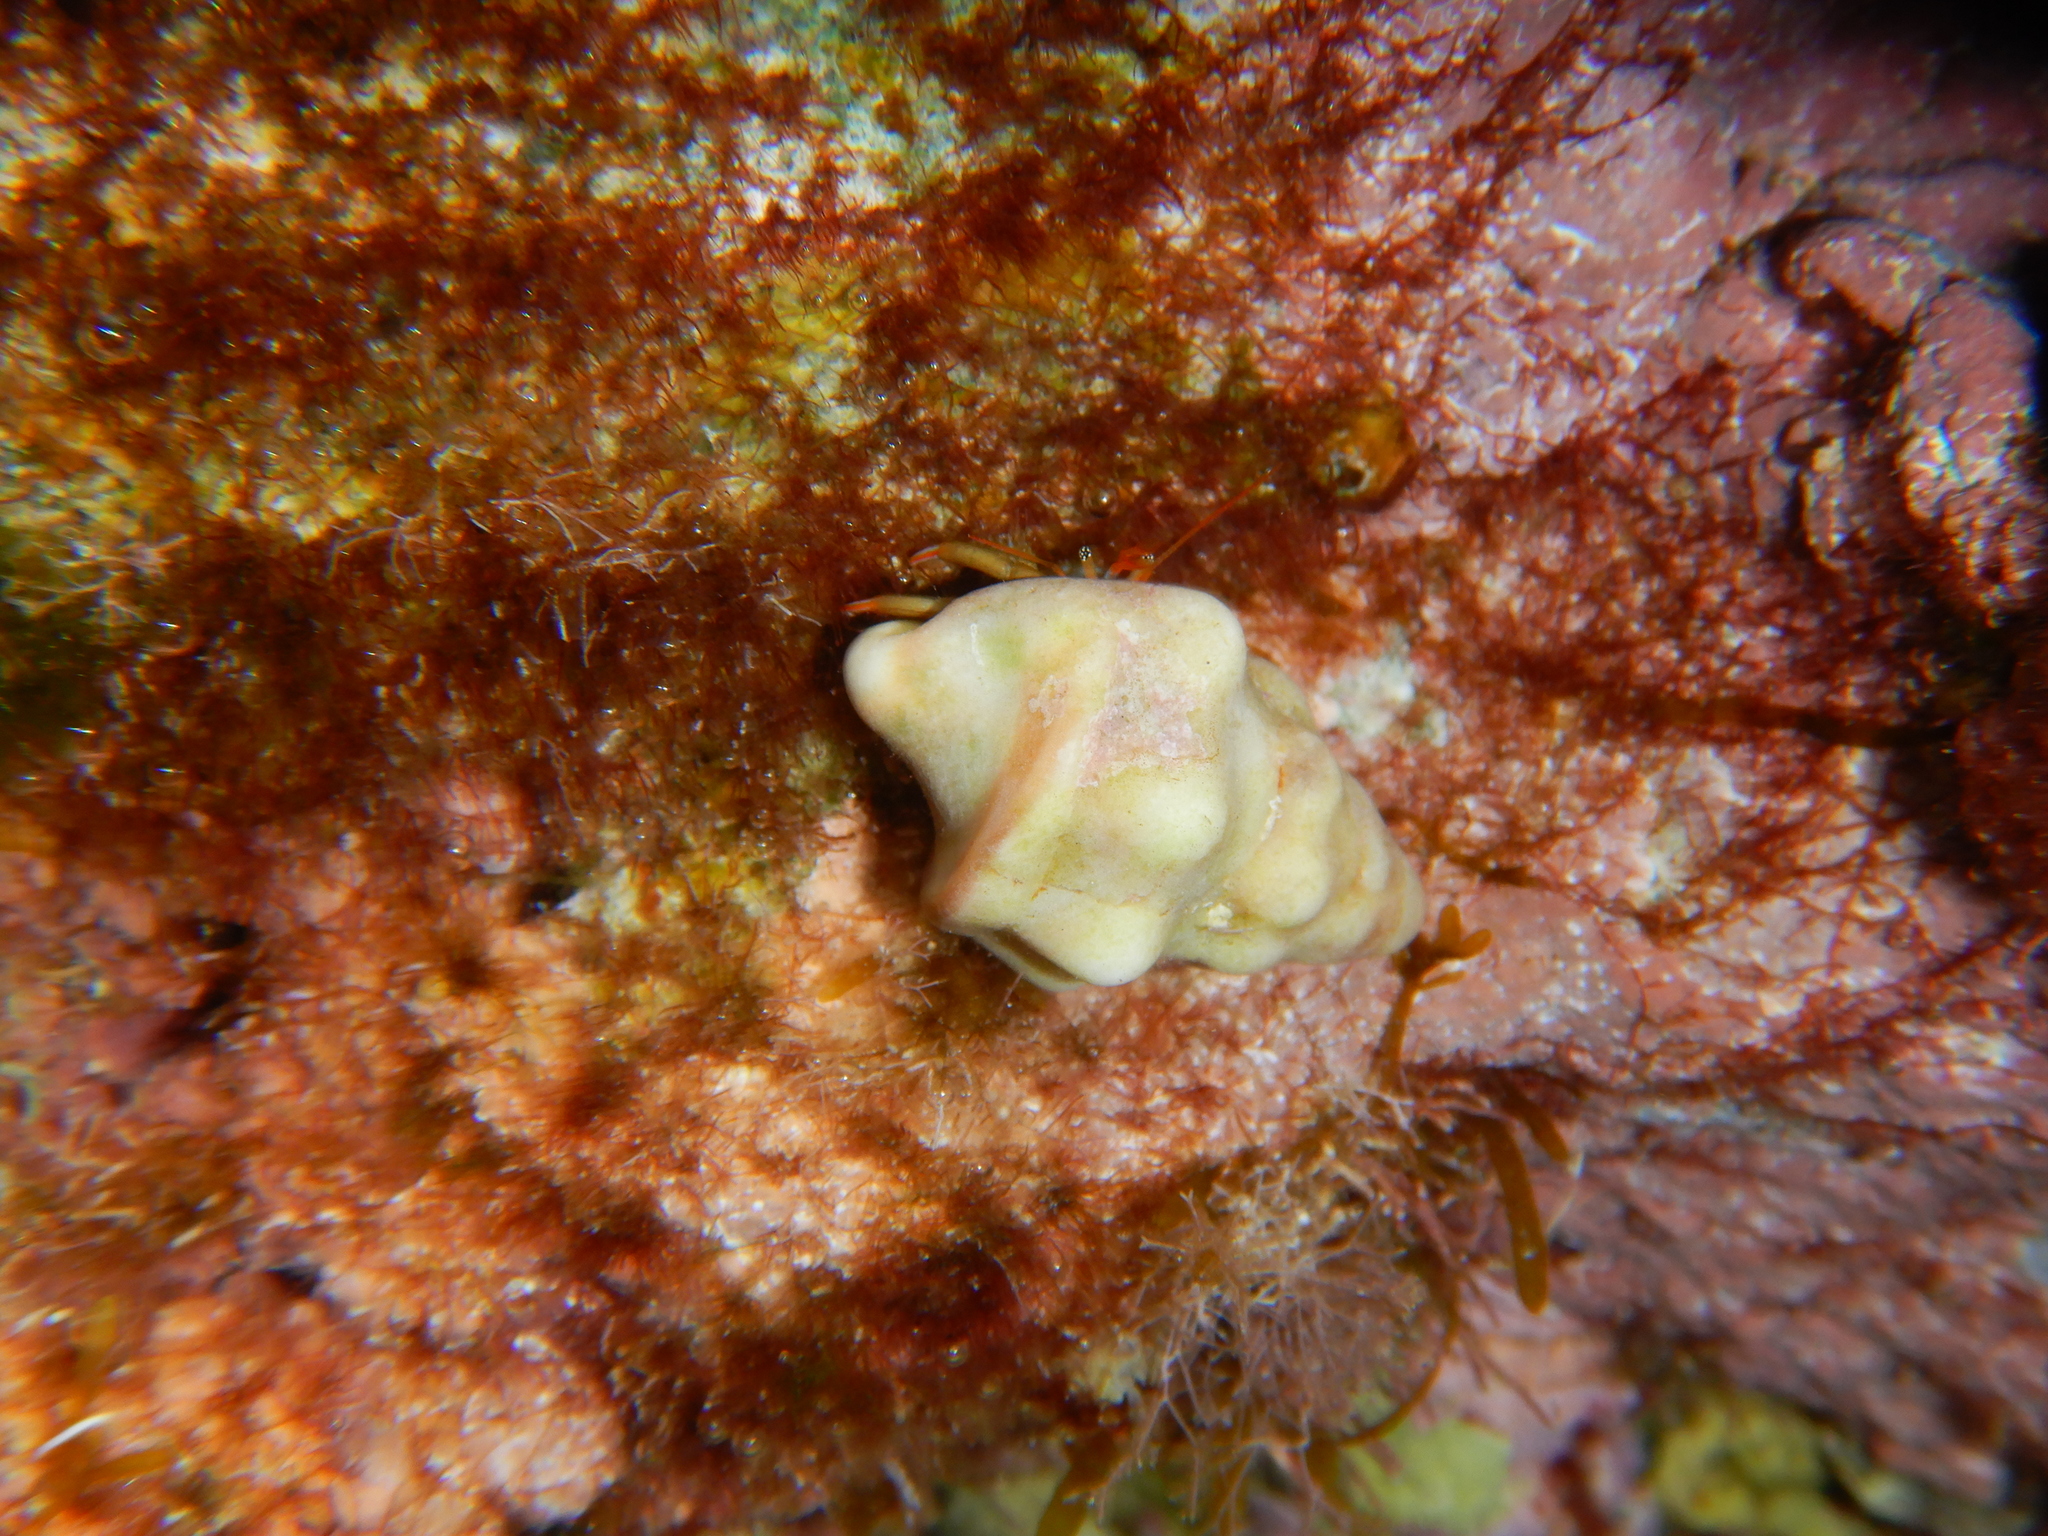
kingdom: Animalia
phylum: Mollusca
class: Gastropoda
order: Neogastropoda
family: Fasciolariidae
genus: Tarantinaea
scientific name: Tarantinaea lignaria
